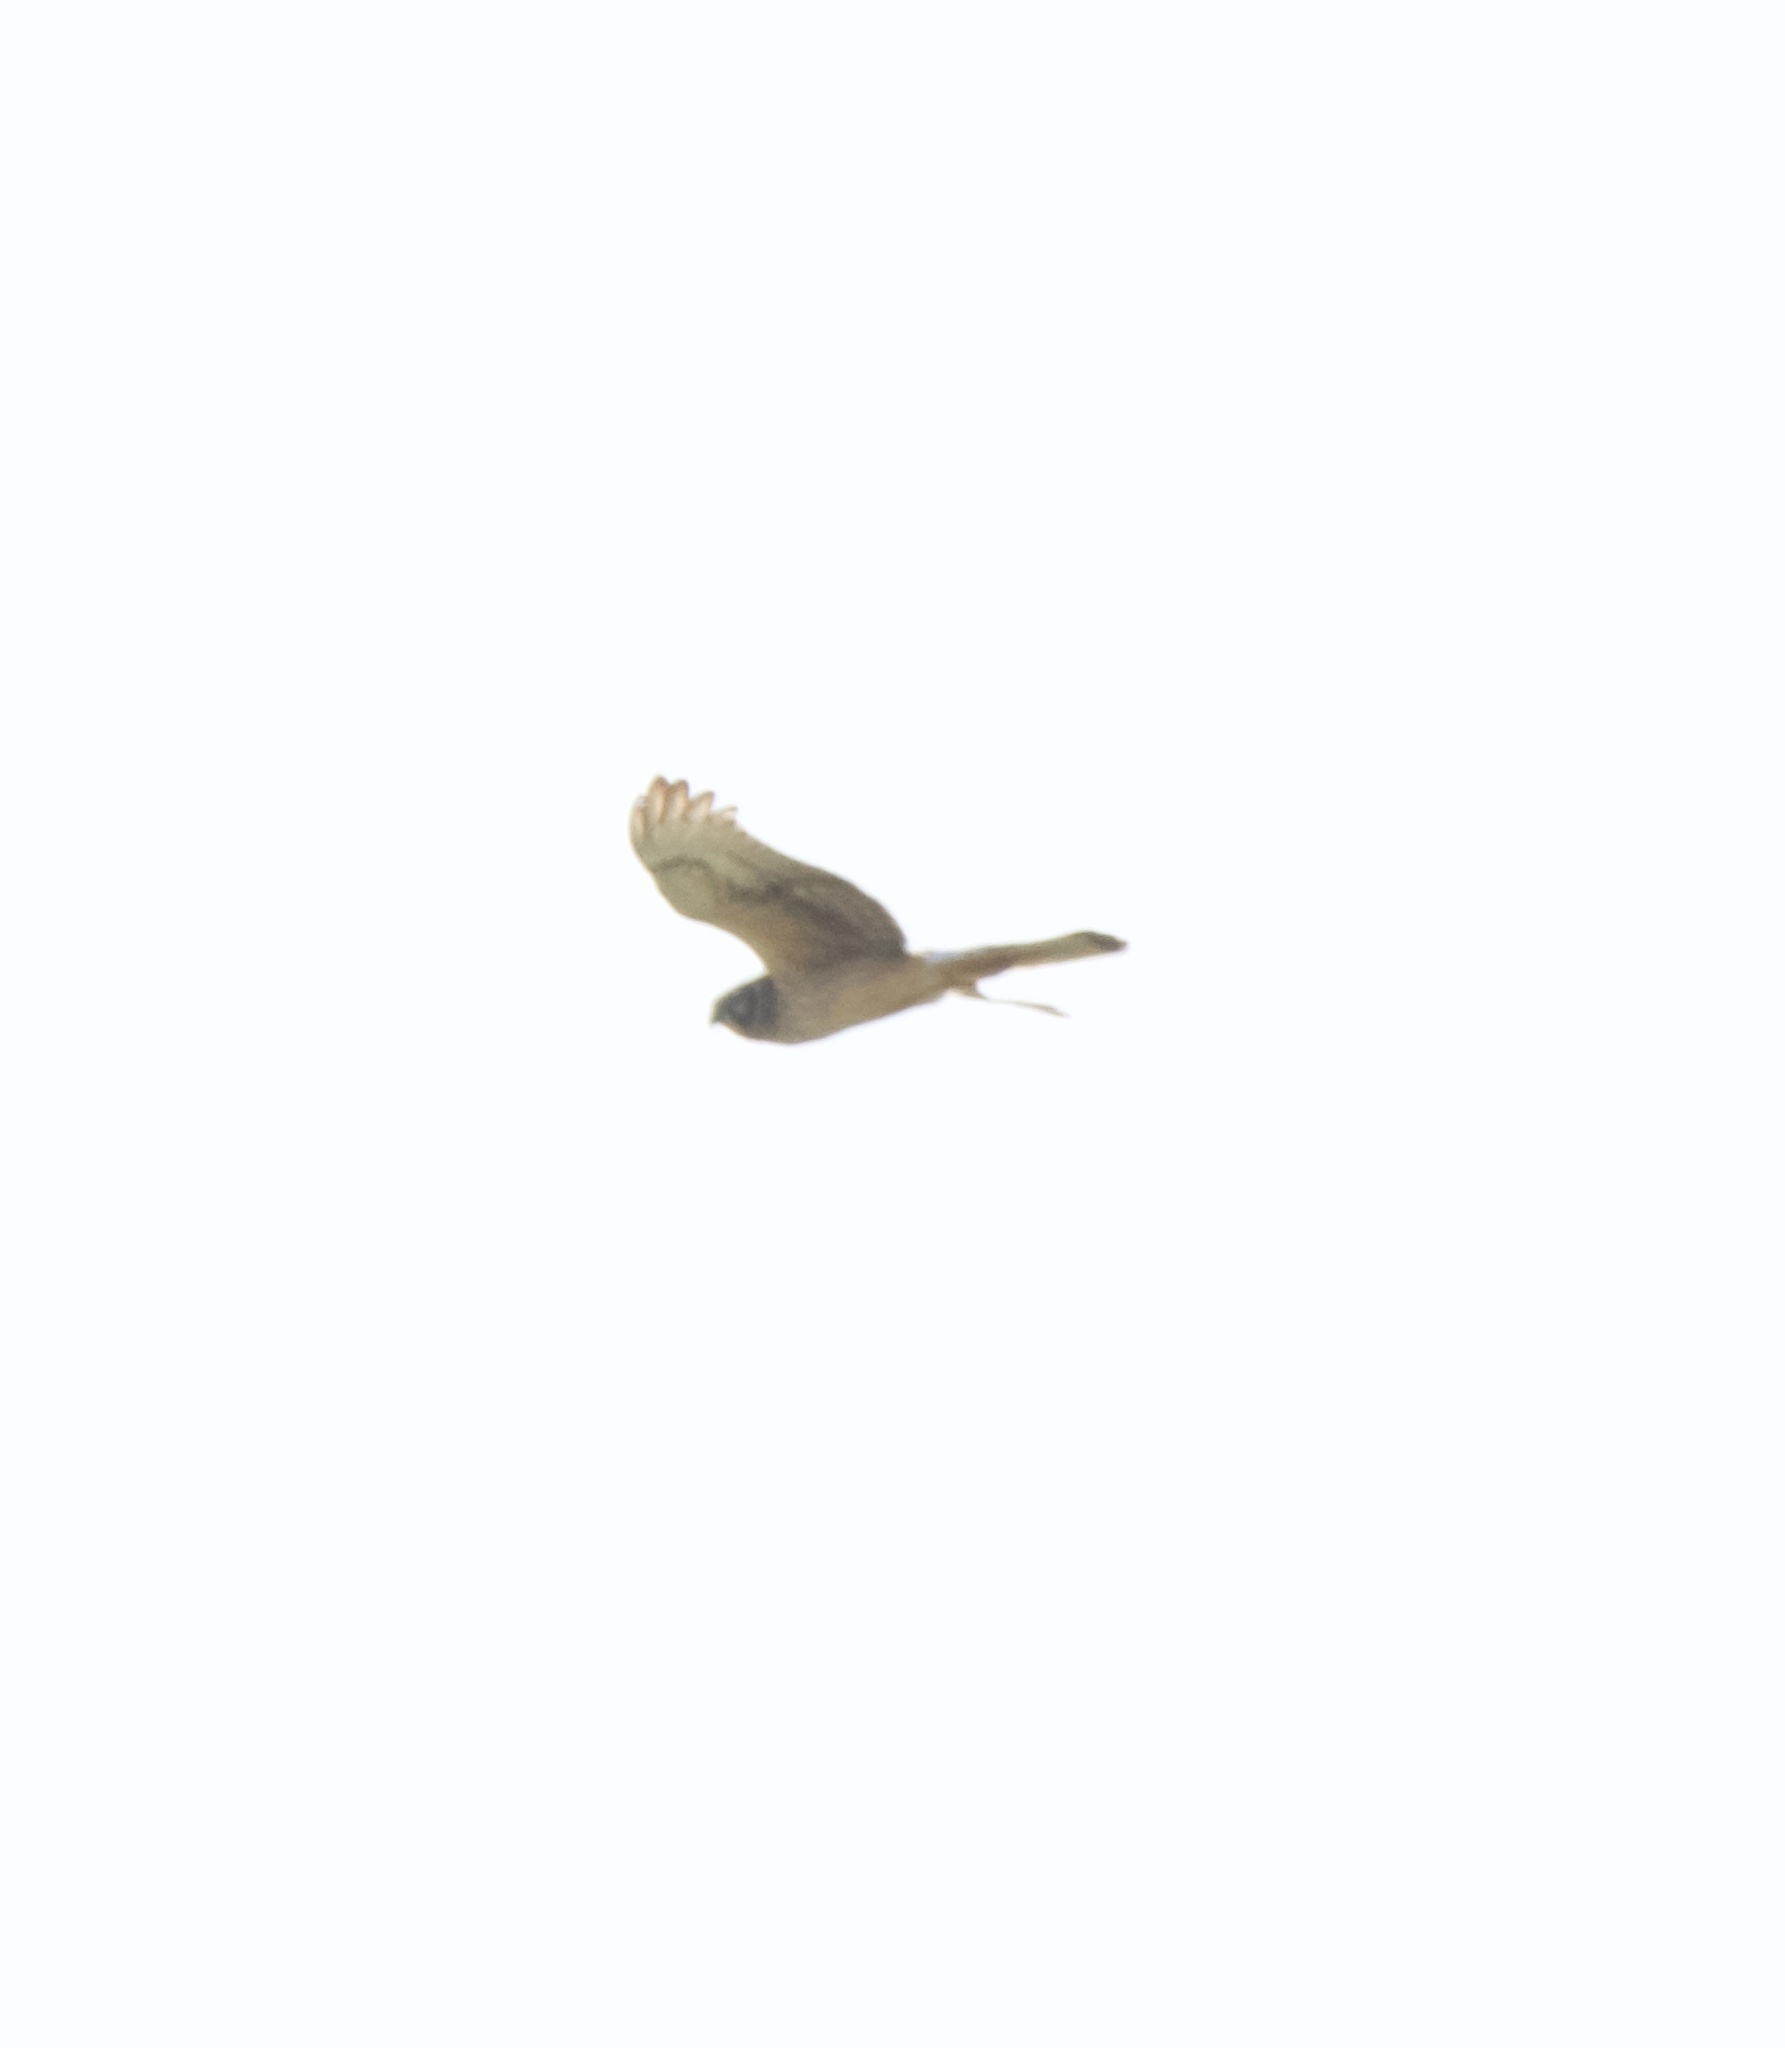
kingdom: Animalia
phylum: Chordata
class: Aves
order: Accipitriformes
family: Accipitridae
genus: Circus
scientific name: Circus cyaneus
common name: Hen harrier
